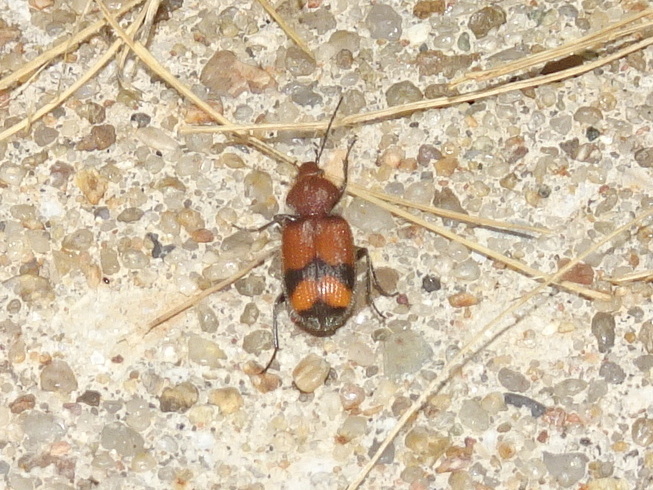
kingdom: Animalia
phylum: Arthropoda
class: Insecta
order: Coleoptera
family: Carabidae
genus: Panagaeus
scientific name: Panagaeus fasciatus
